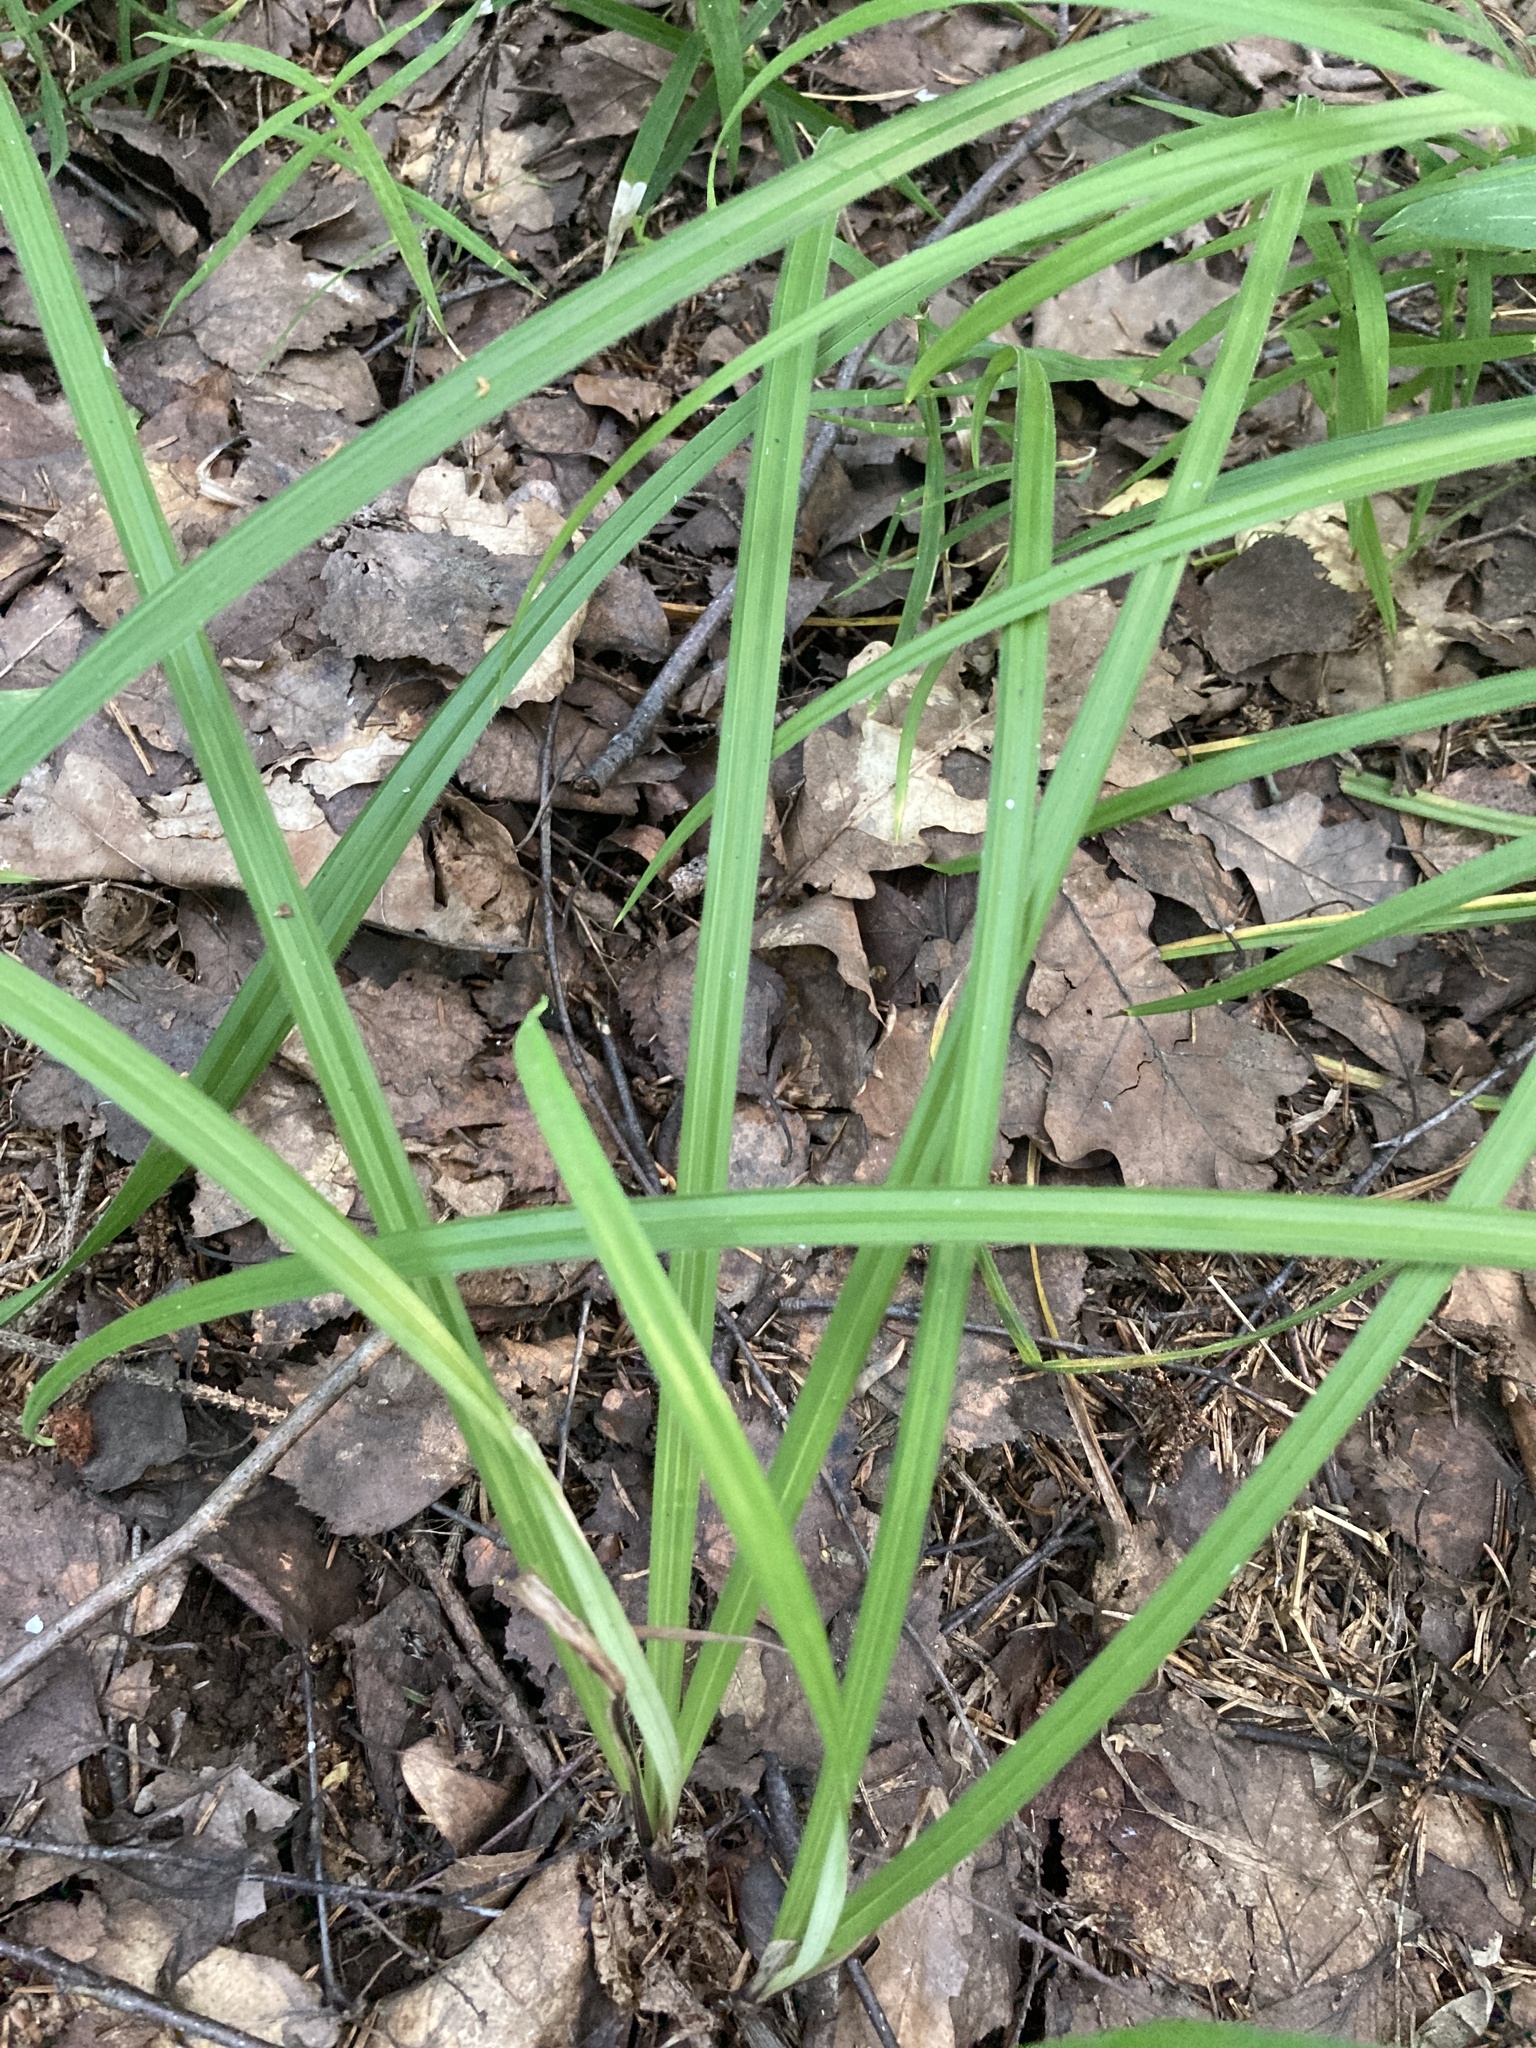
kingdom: Plantae
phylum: Tracheophyta
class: Liliopsida
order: Poales
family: Cyperaceae
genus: Carex
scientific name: Carex pilosa
